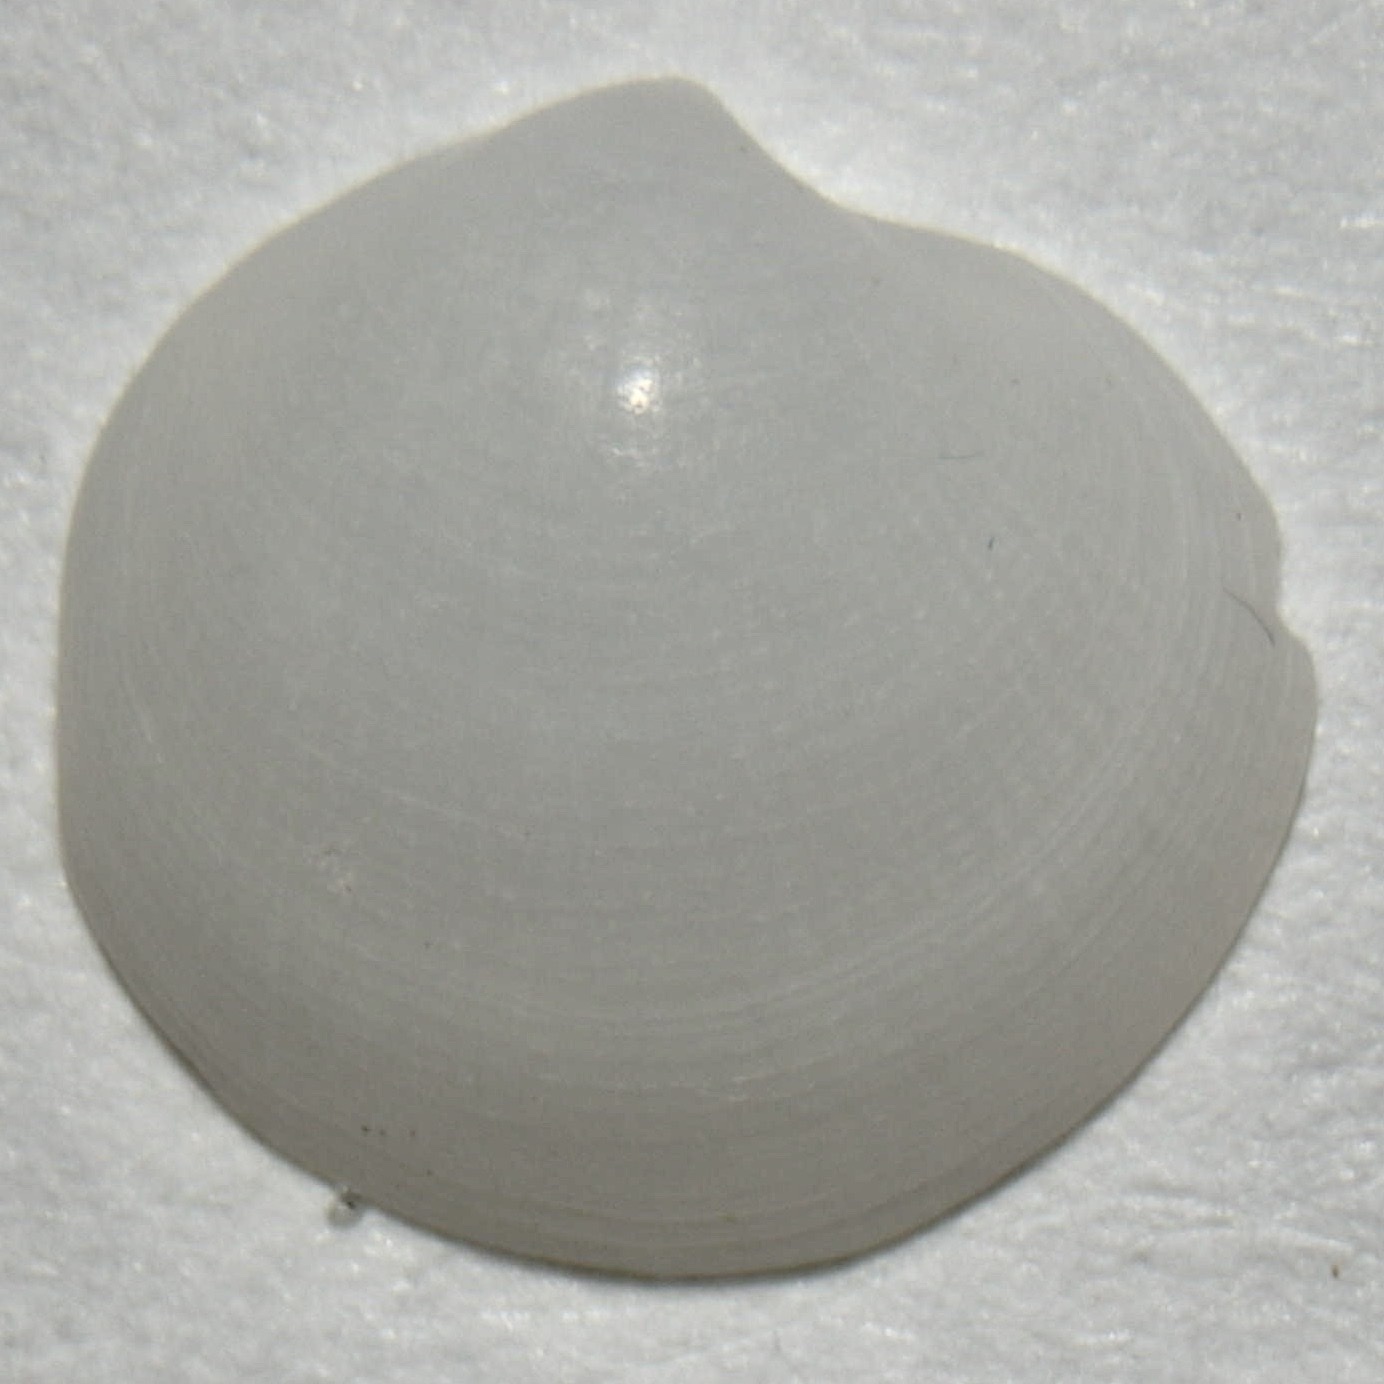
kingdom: Animalia
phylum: Mollusca
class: Bivalvia
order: Lucinida
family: Lucinidae
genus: Parvilucina
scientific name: Parvilucina crenella
